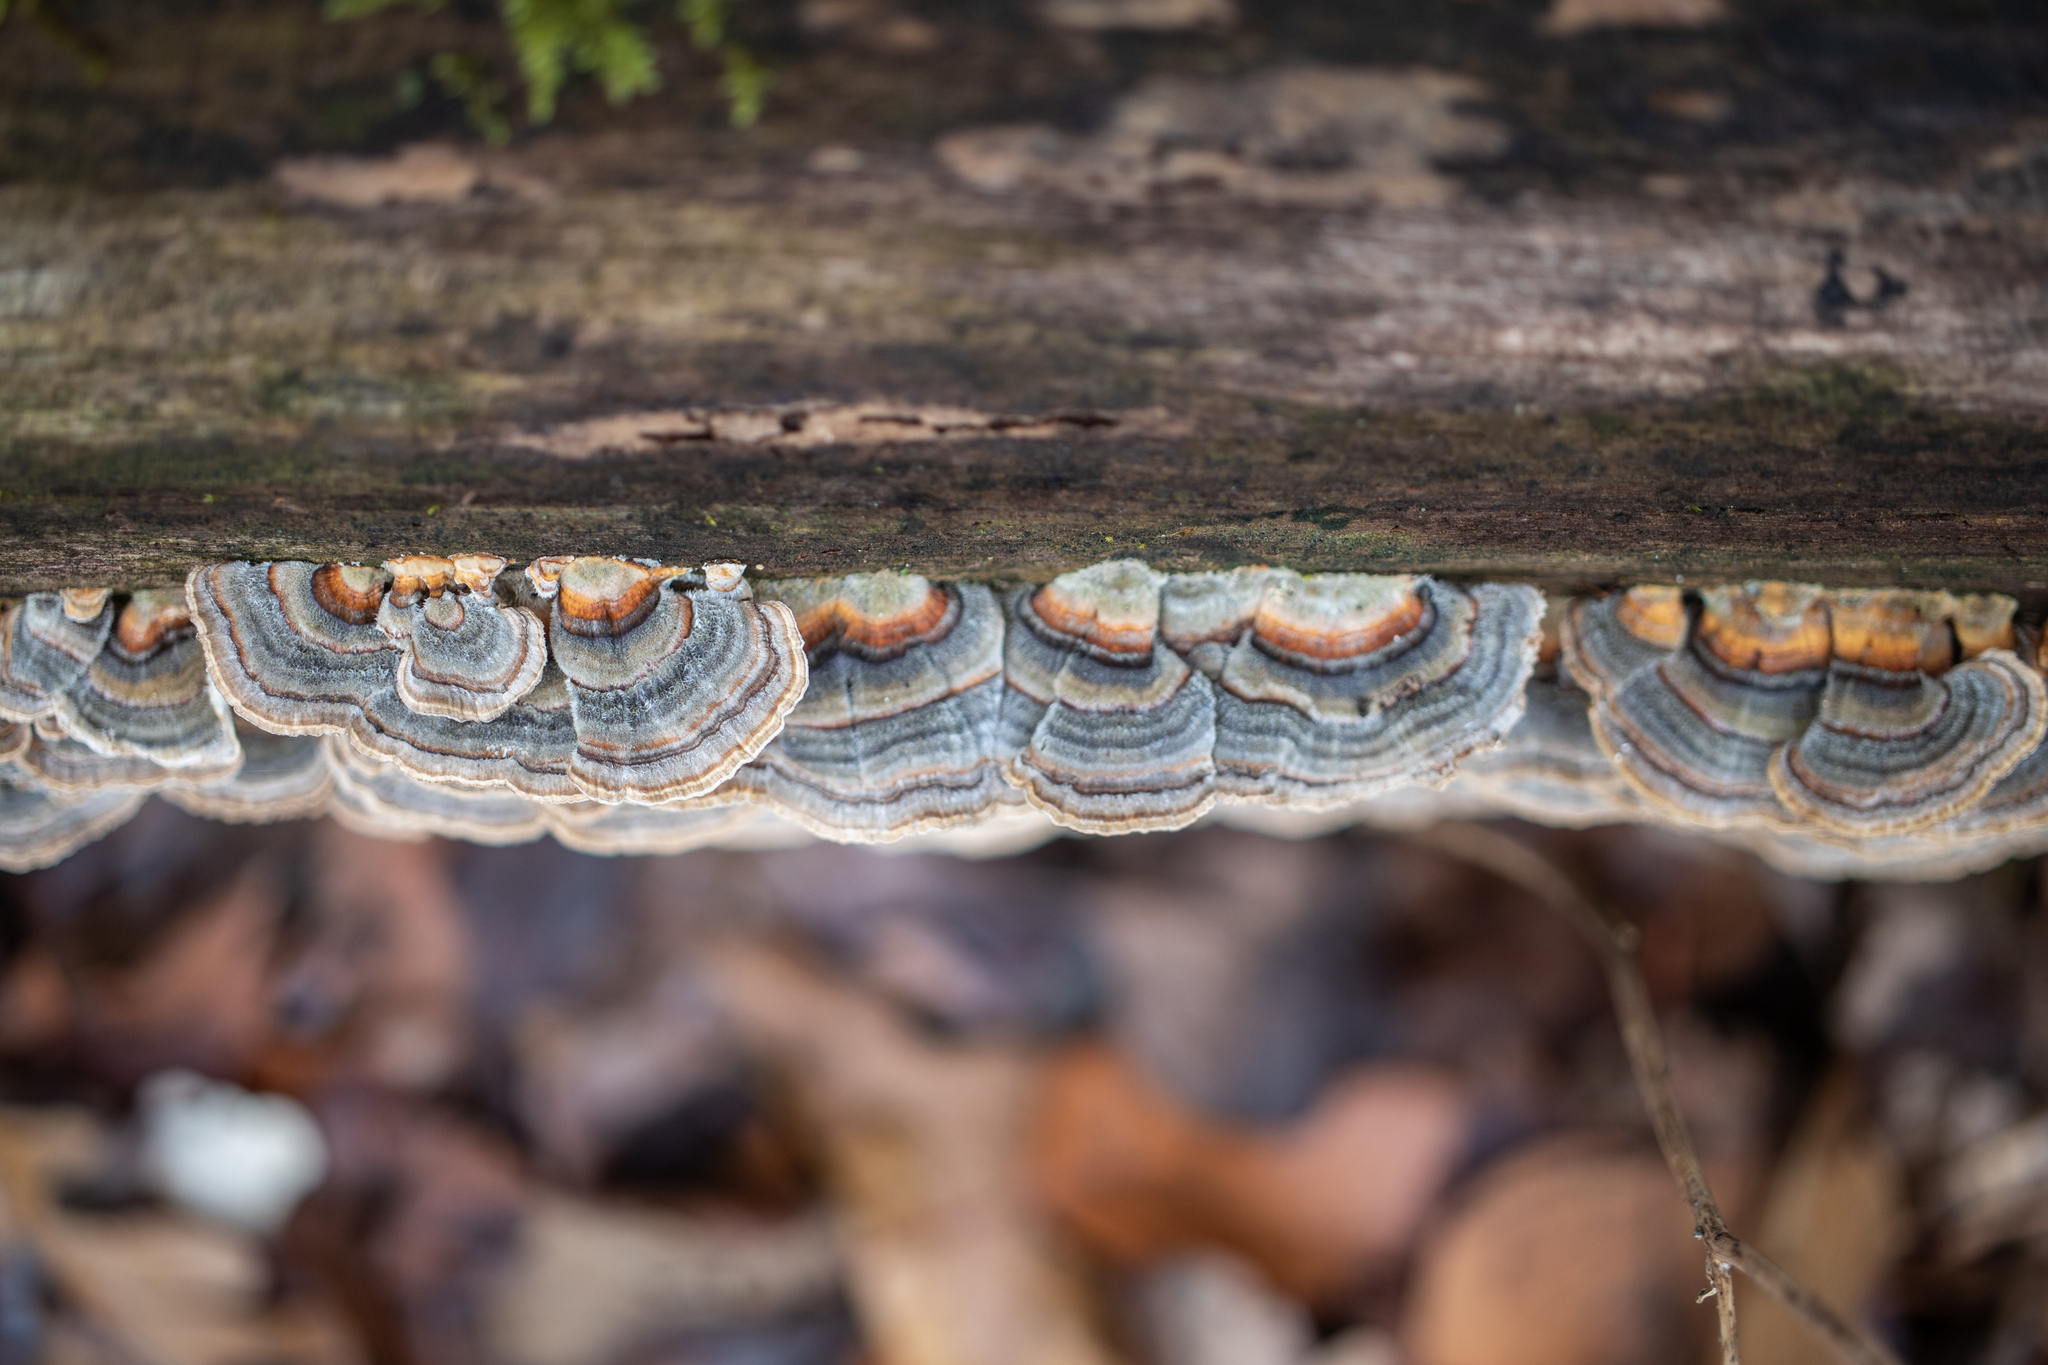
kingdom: Fungi
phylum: Basidiomycota
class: Agaricomycetes
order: Polyporales
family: Polyporaceae
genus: Trametes
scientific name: Trametes versicolor
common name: Turkeytail
